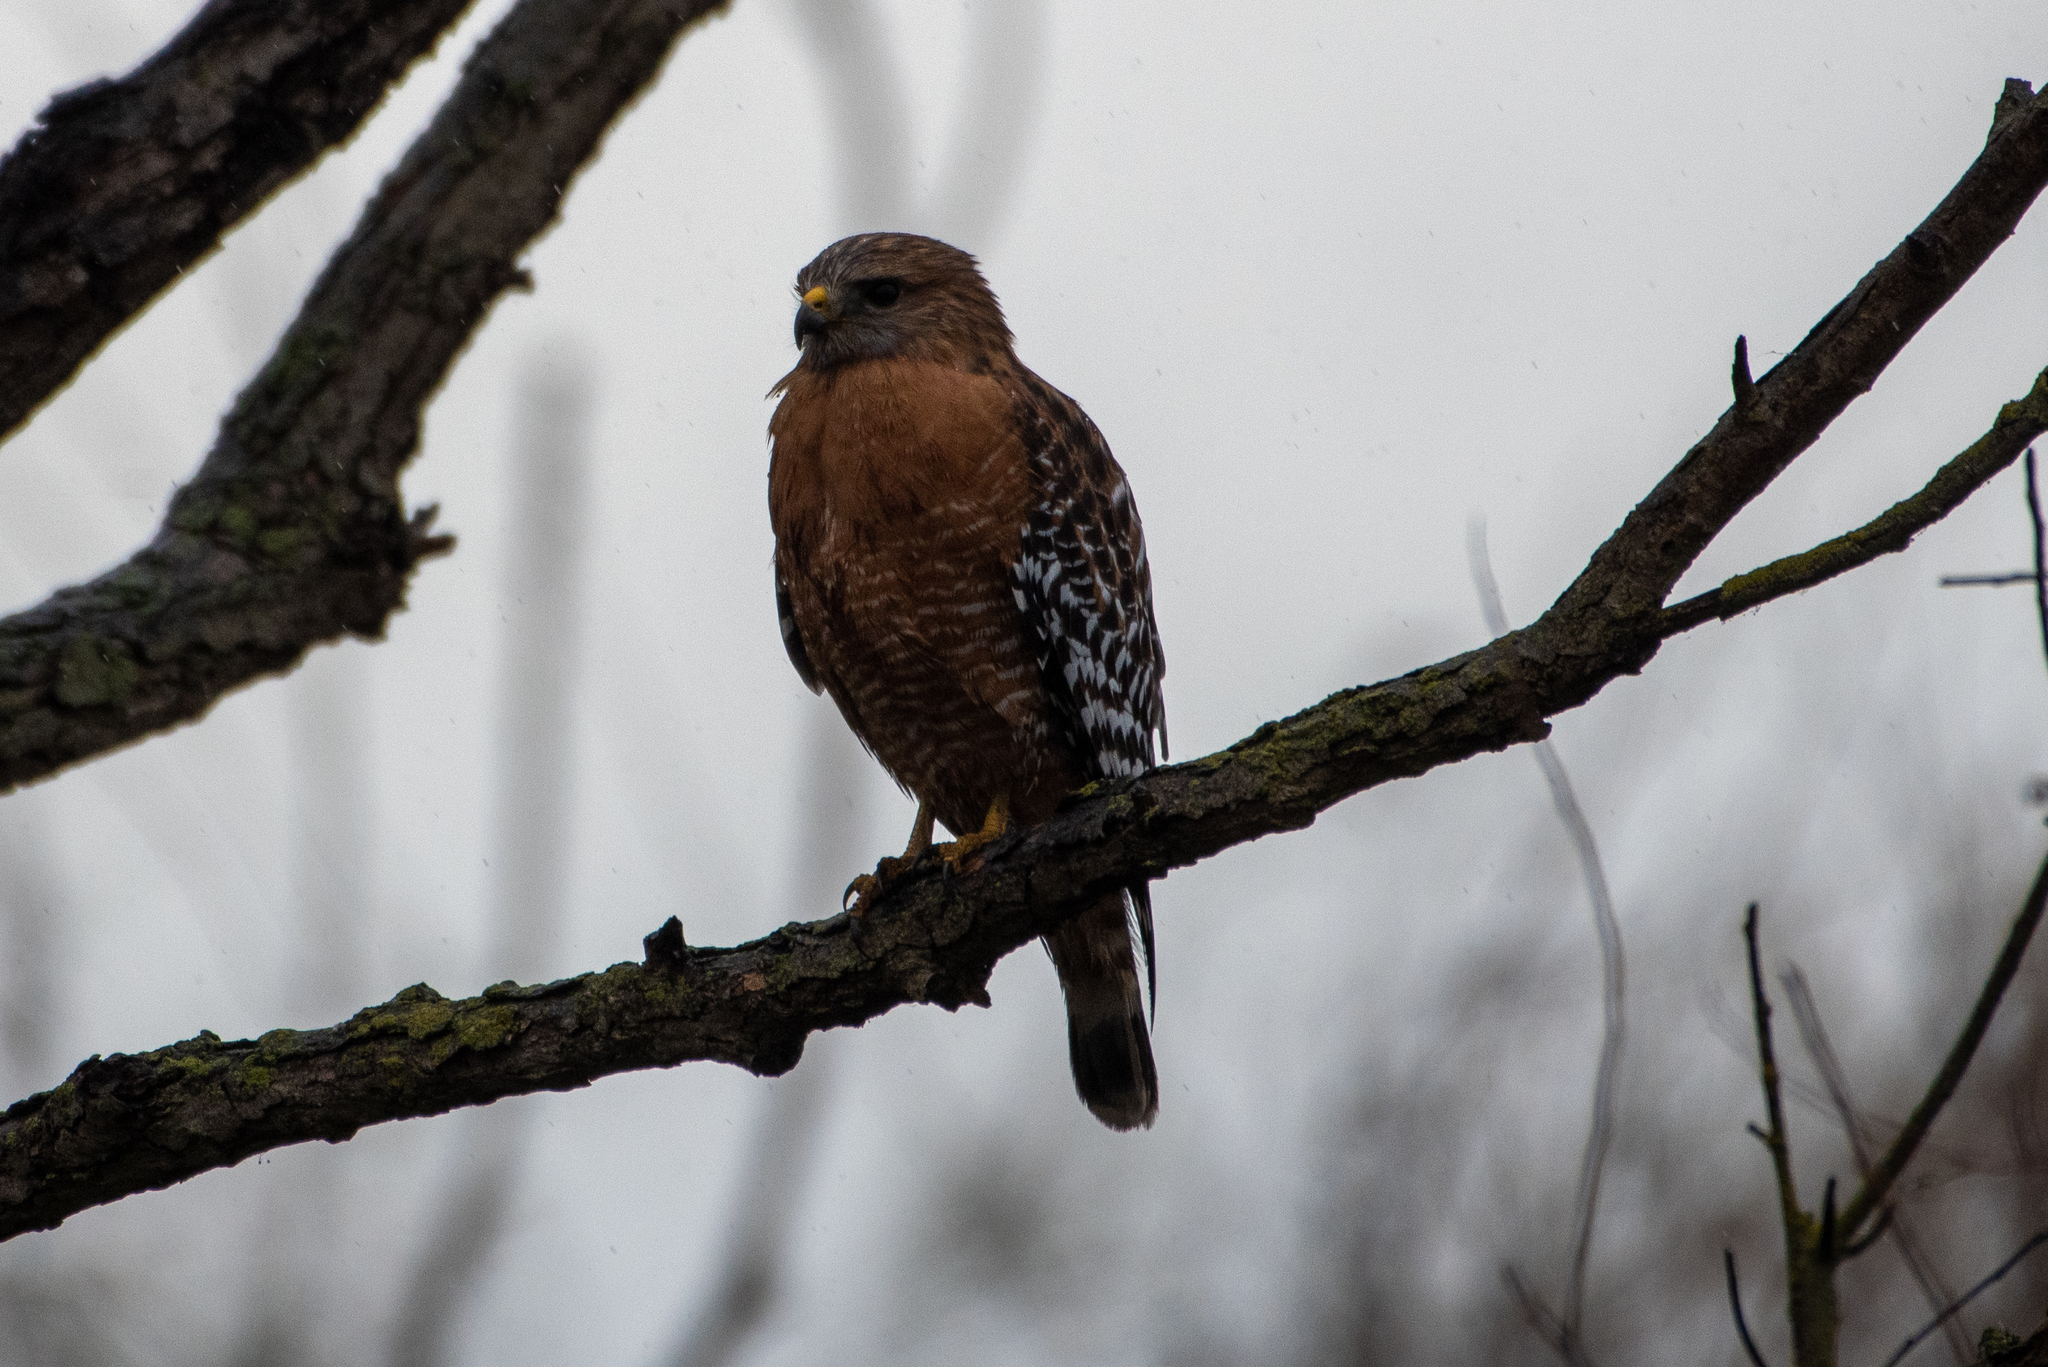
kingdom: Animalia
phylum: Chordata
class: Aves
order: Accipitriformes
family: Accipitridae
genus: Buteo
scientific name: Buteo lineatus
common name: Red-shouldered hawk
